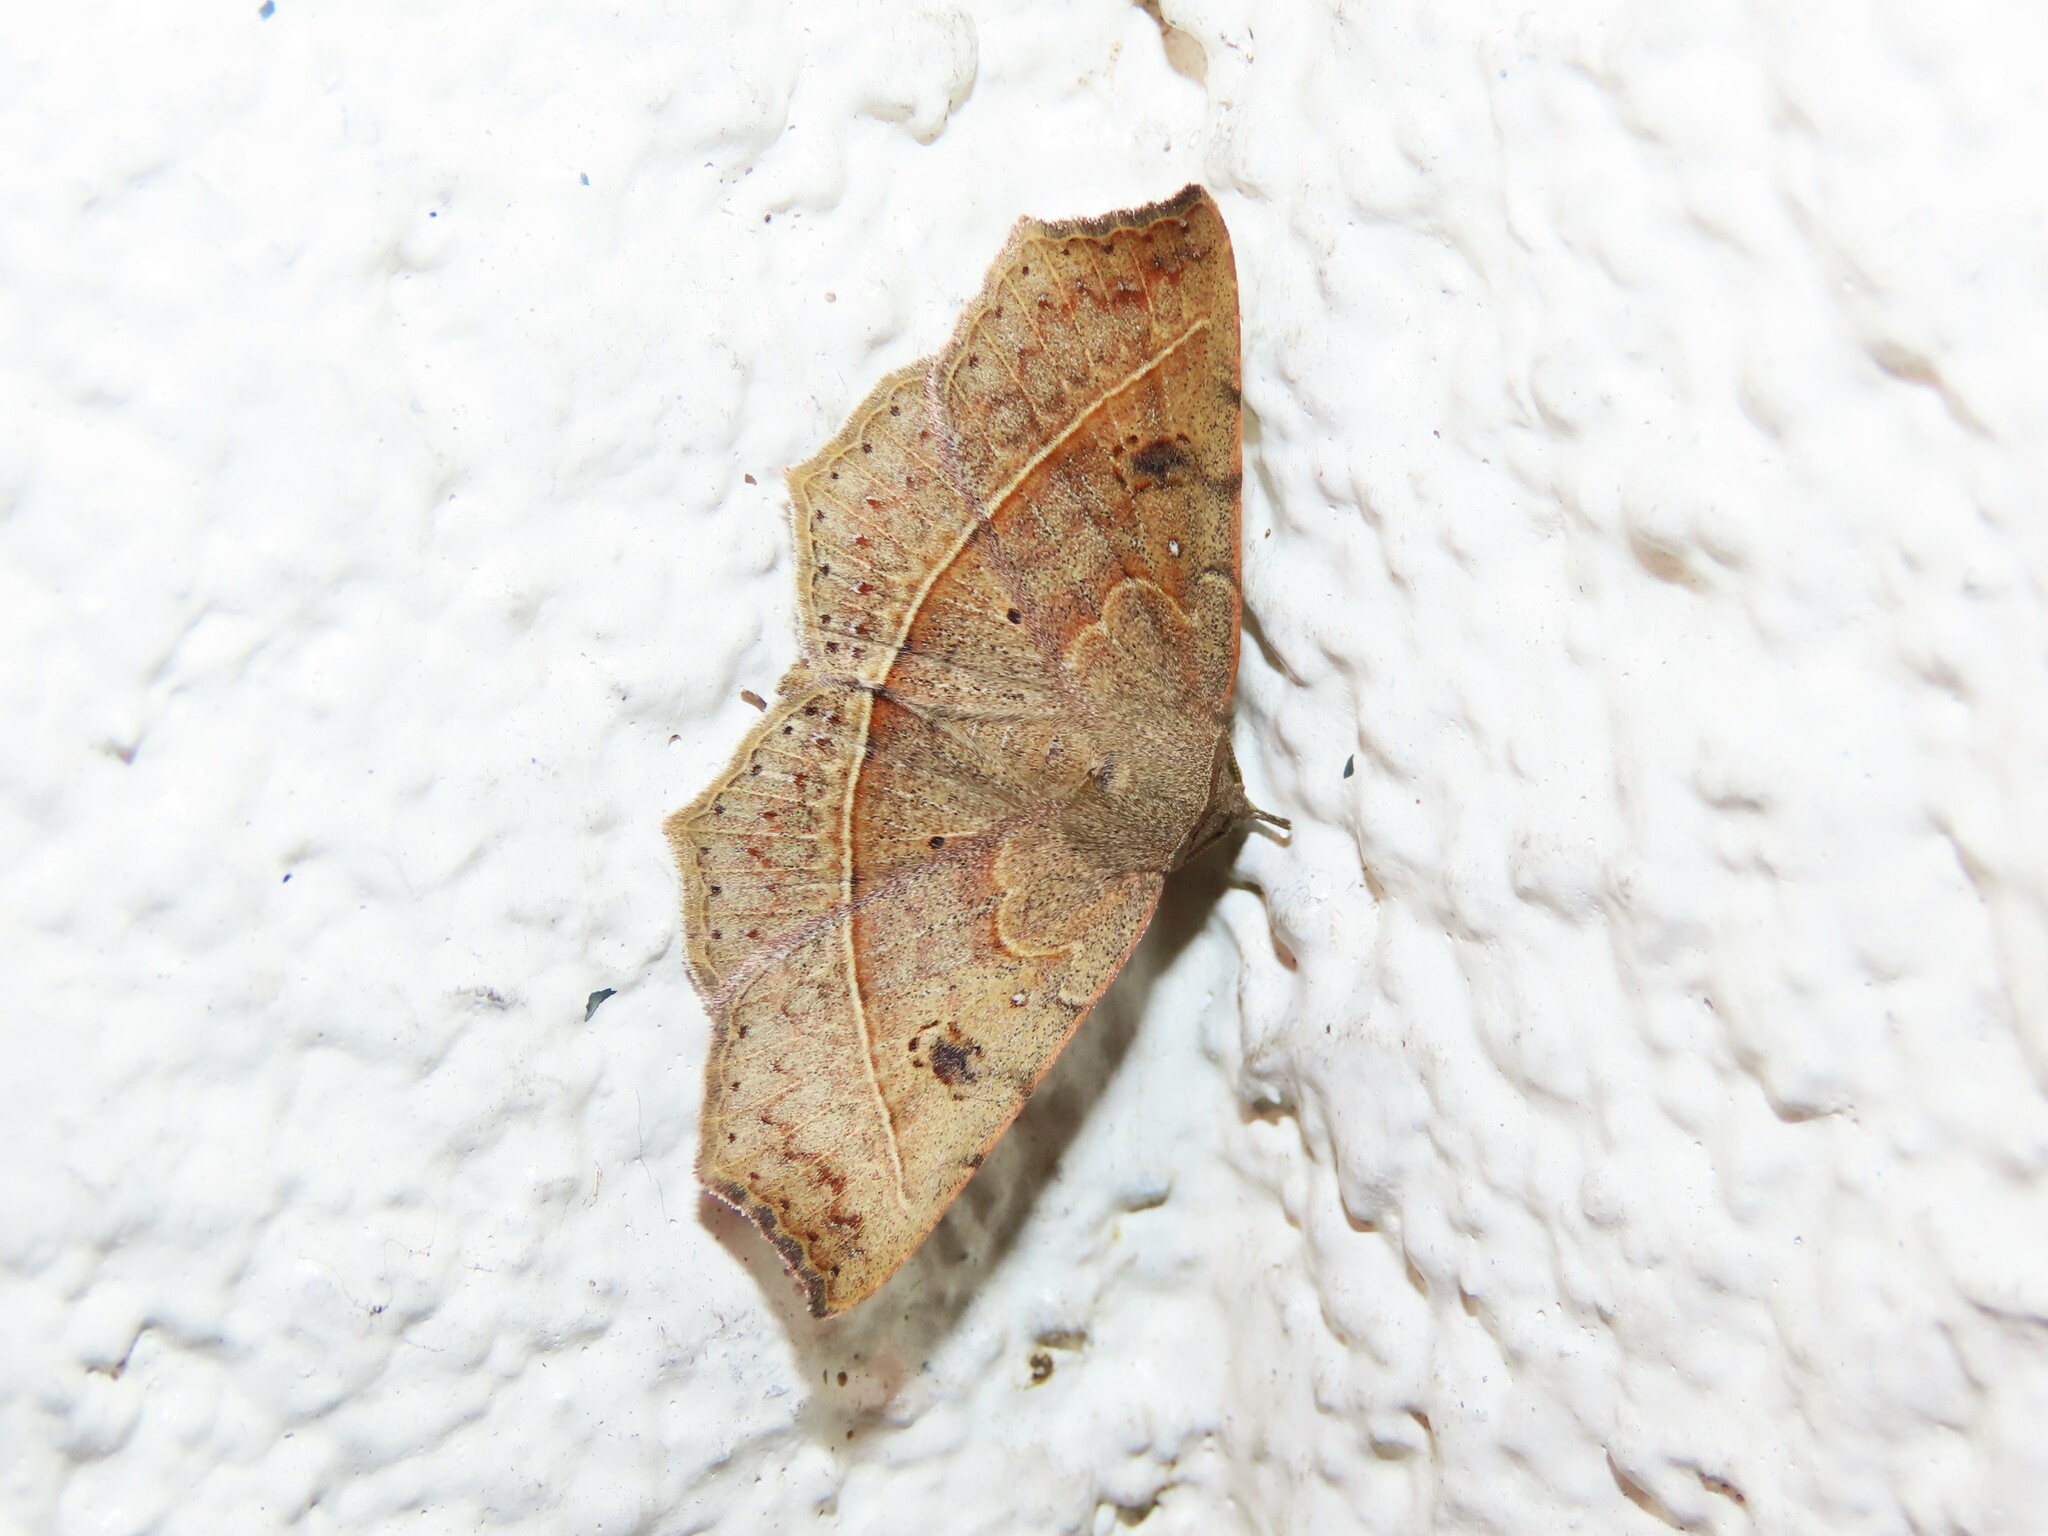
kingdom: Animalia
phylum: Arthropoda
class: Insecta
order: Lepidoptera
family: Erebidae
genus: Ephyrodes
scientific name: Ephyrodes cacata
